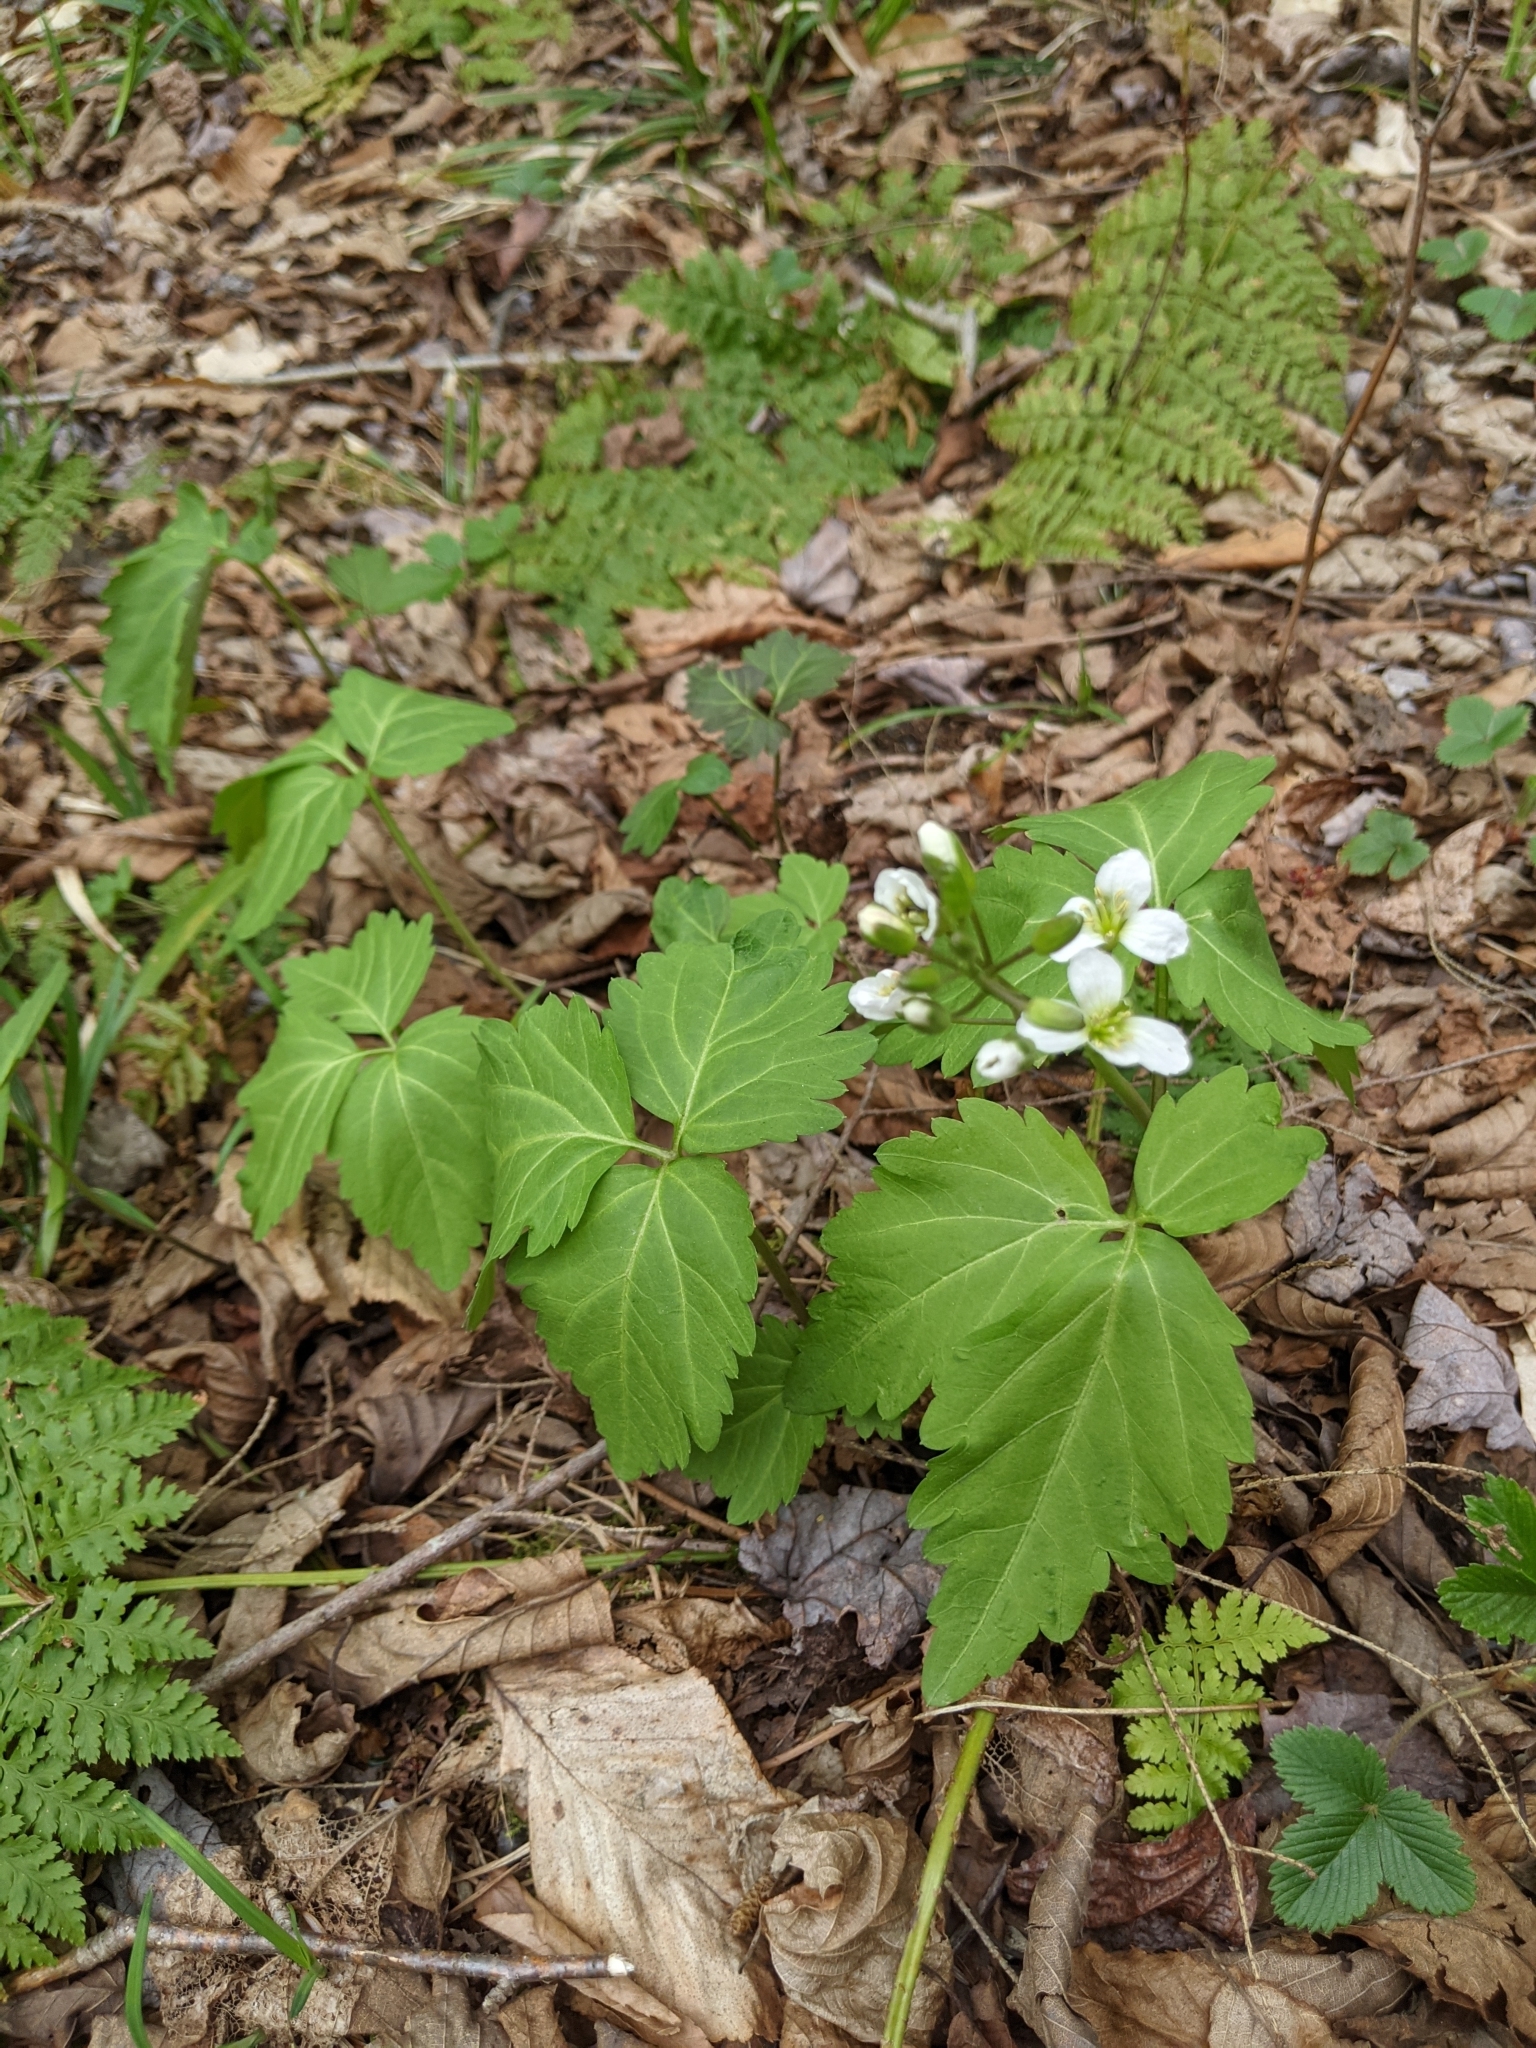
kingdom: Plantae
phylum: Tracheophyta
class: Magnoliopsida
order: Brassicales
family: Brassicaceae
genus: Cardamine
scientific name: Cardamine diphylla
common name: Broad-leaved toothwort
